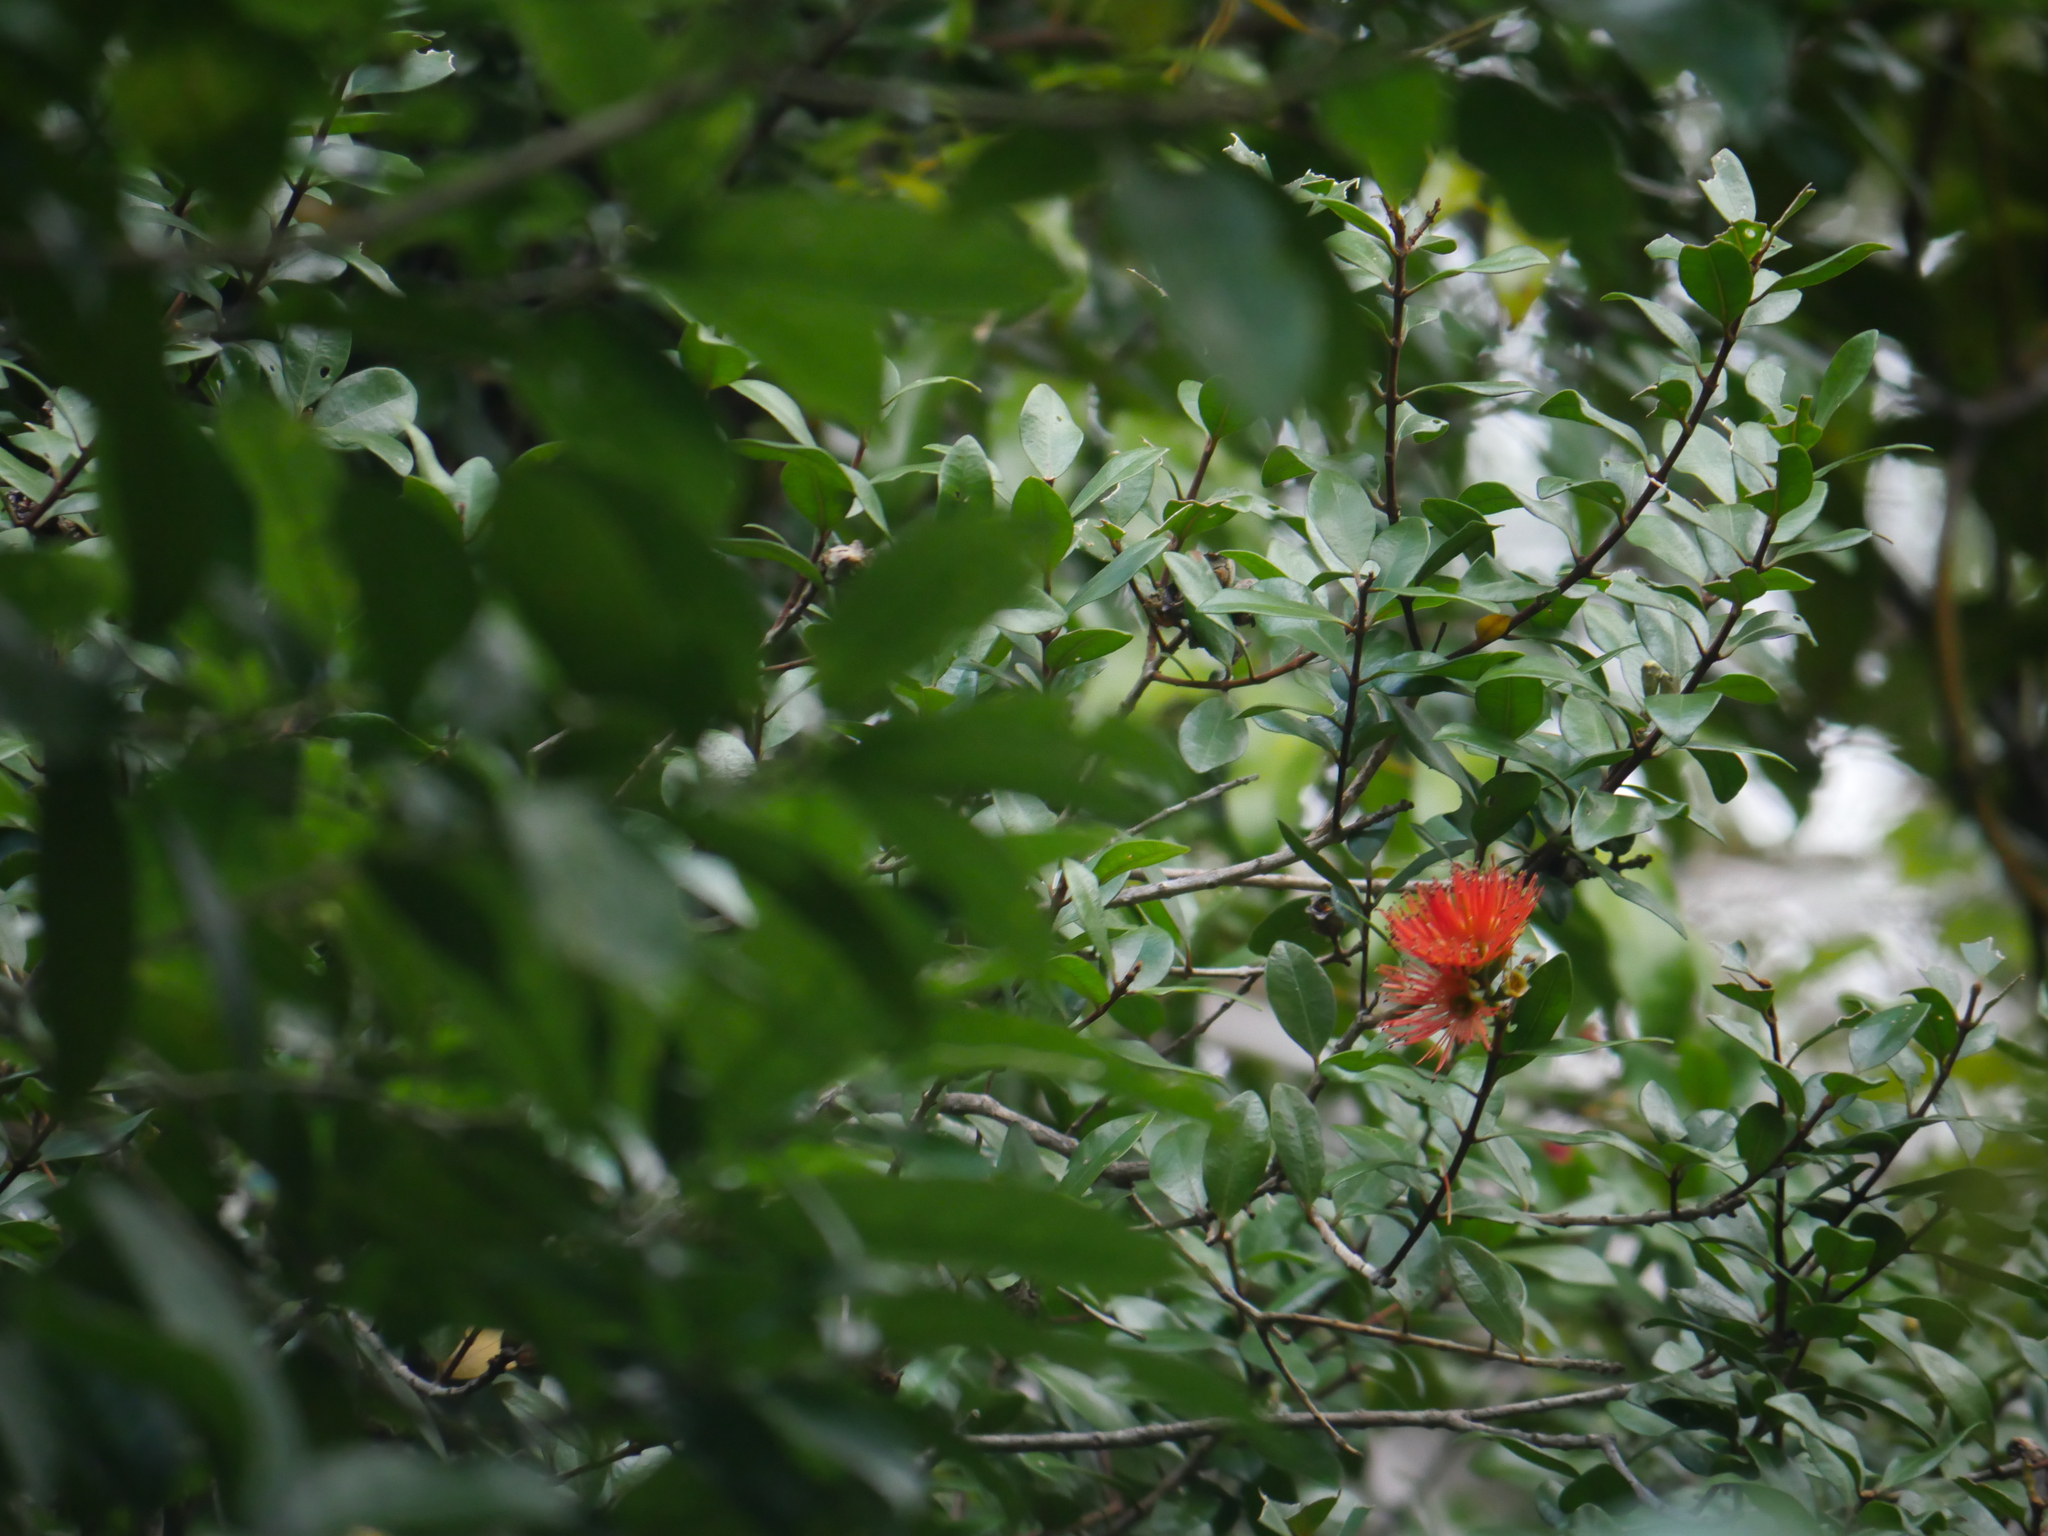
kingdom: Plantae
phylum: Tracheophyta
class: Magnoliopsida
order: Myrtales
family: Myrtaceae
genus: Metrosideros
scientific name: Metrosideros fulgens
